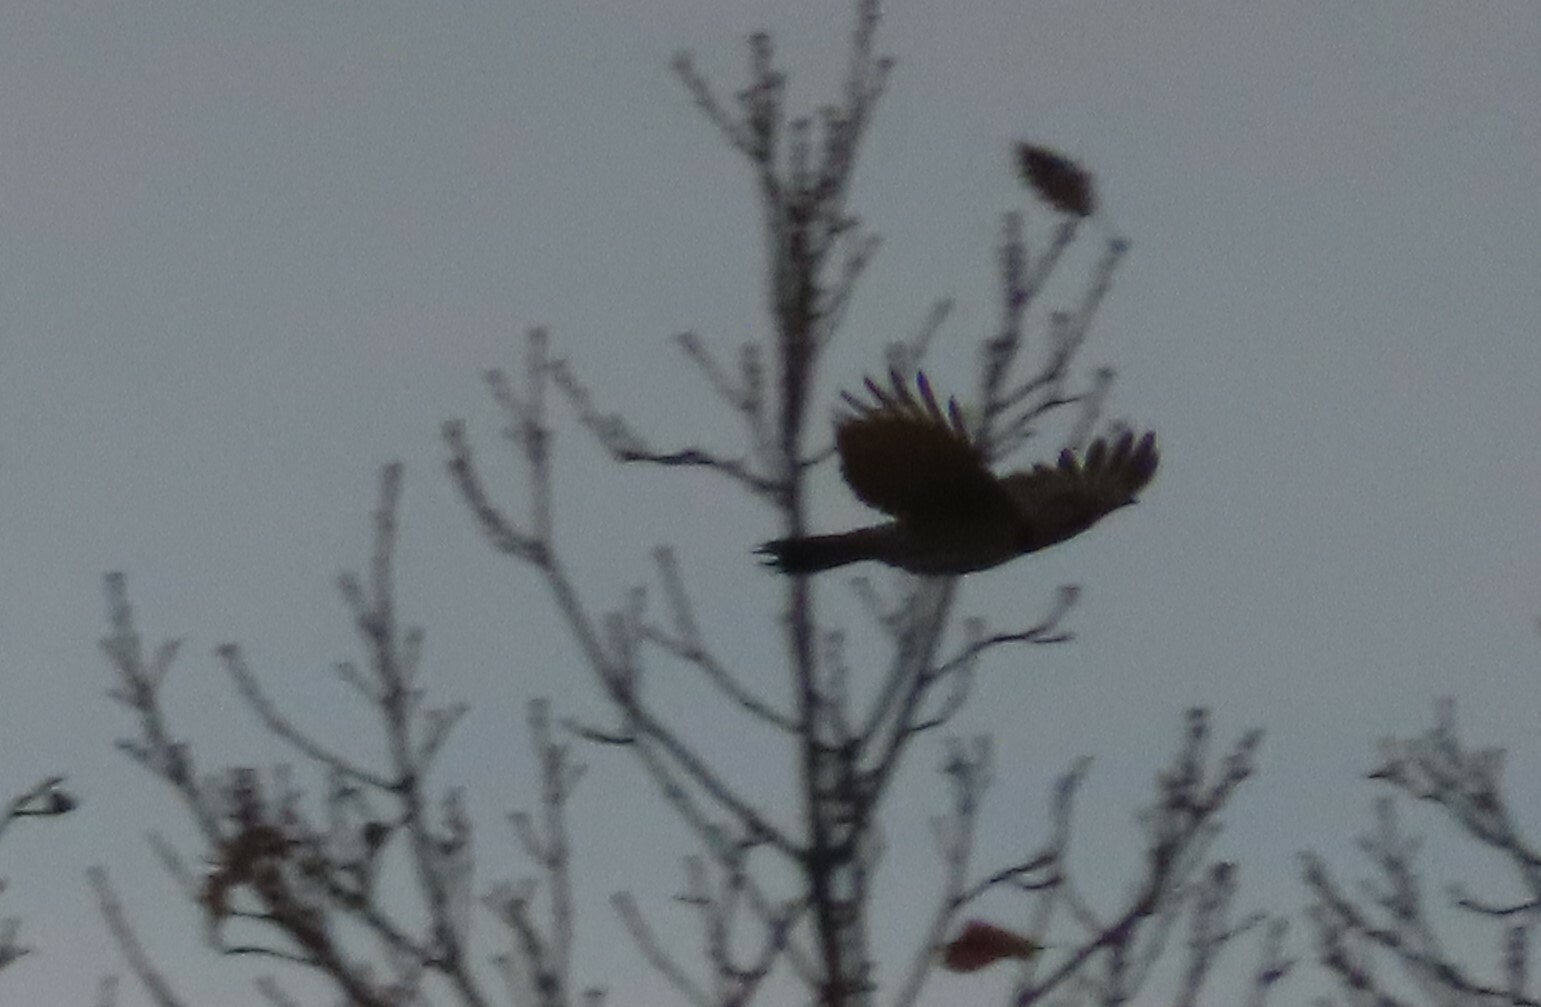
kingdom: Animalia
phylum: Chordata
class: Aves
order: Piciformes
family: Picidae
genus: Colaptes
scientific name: Colaptes auratus
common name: Northern flicker
